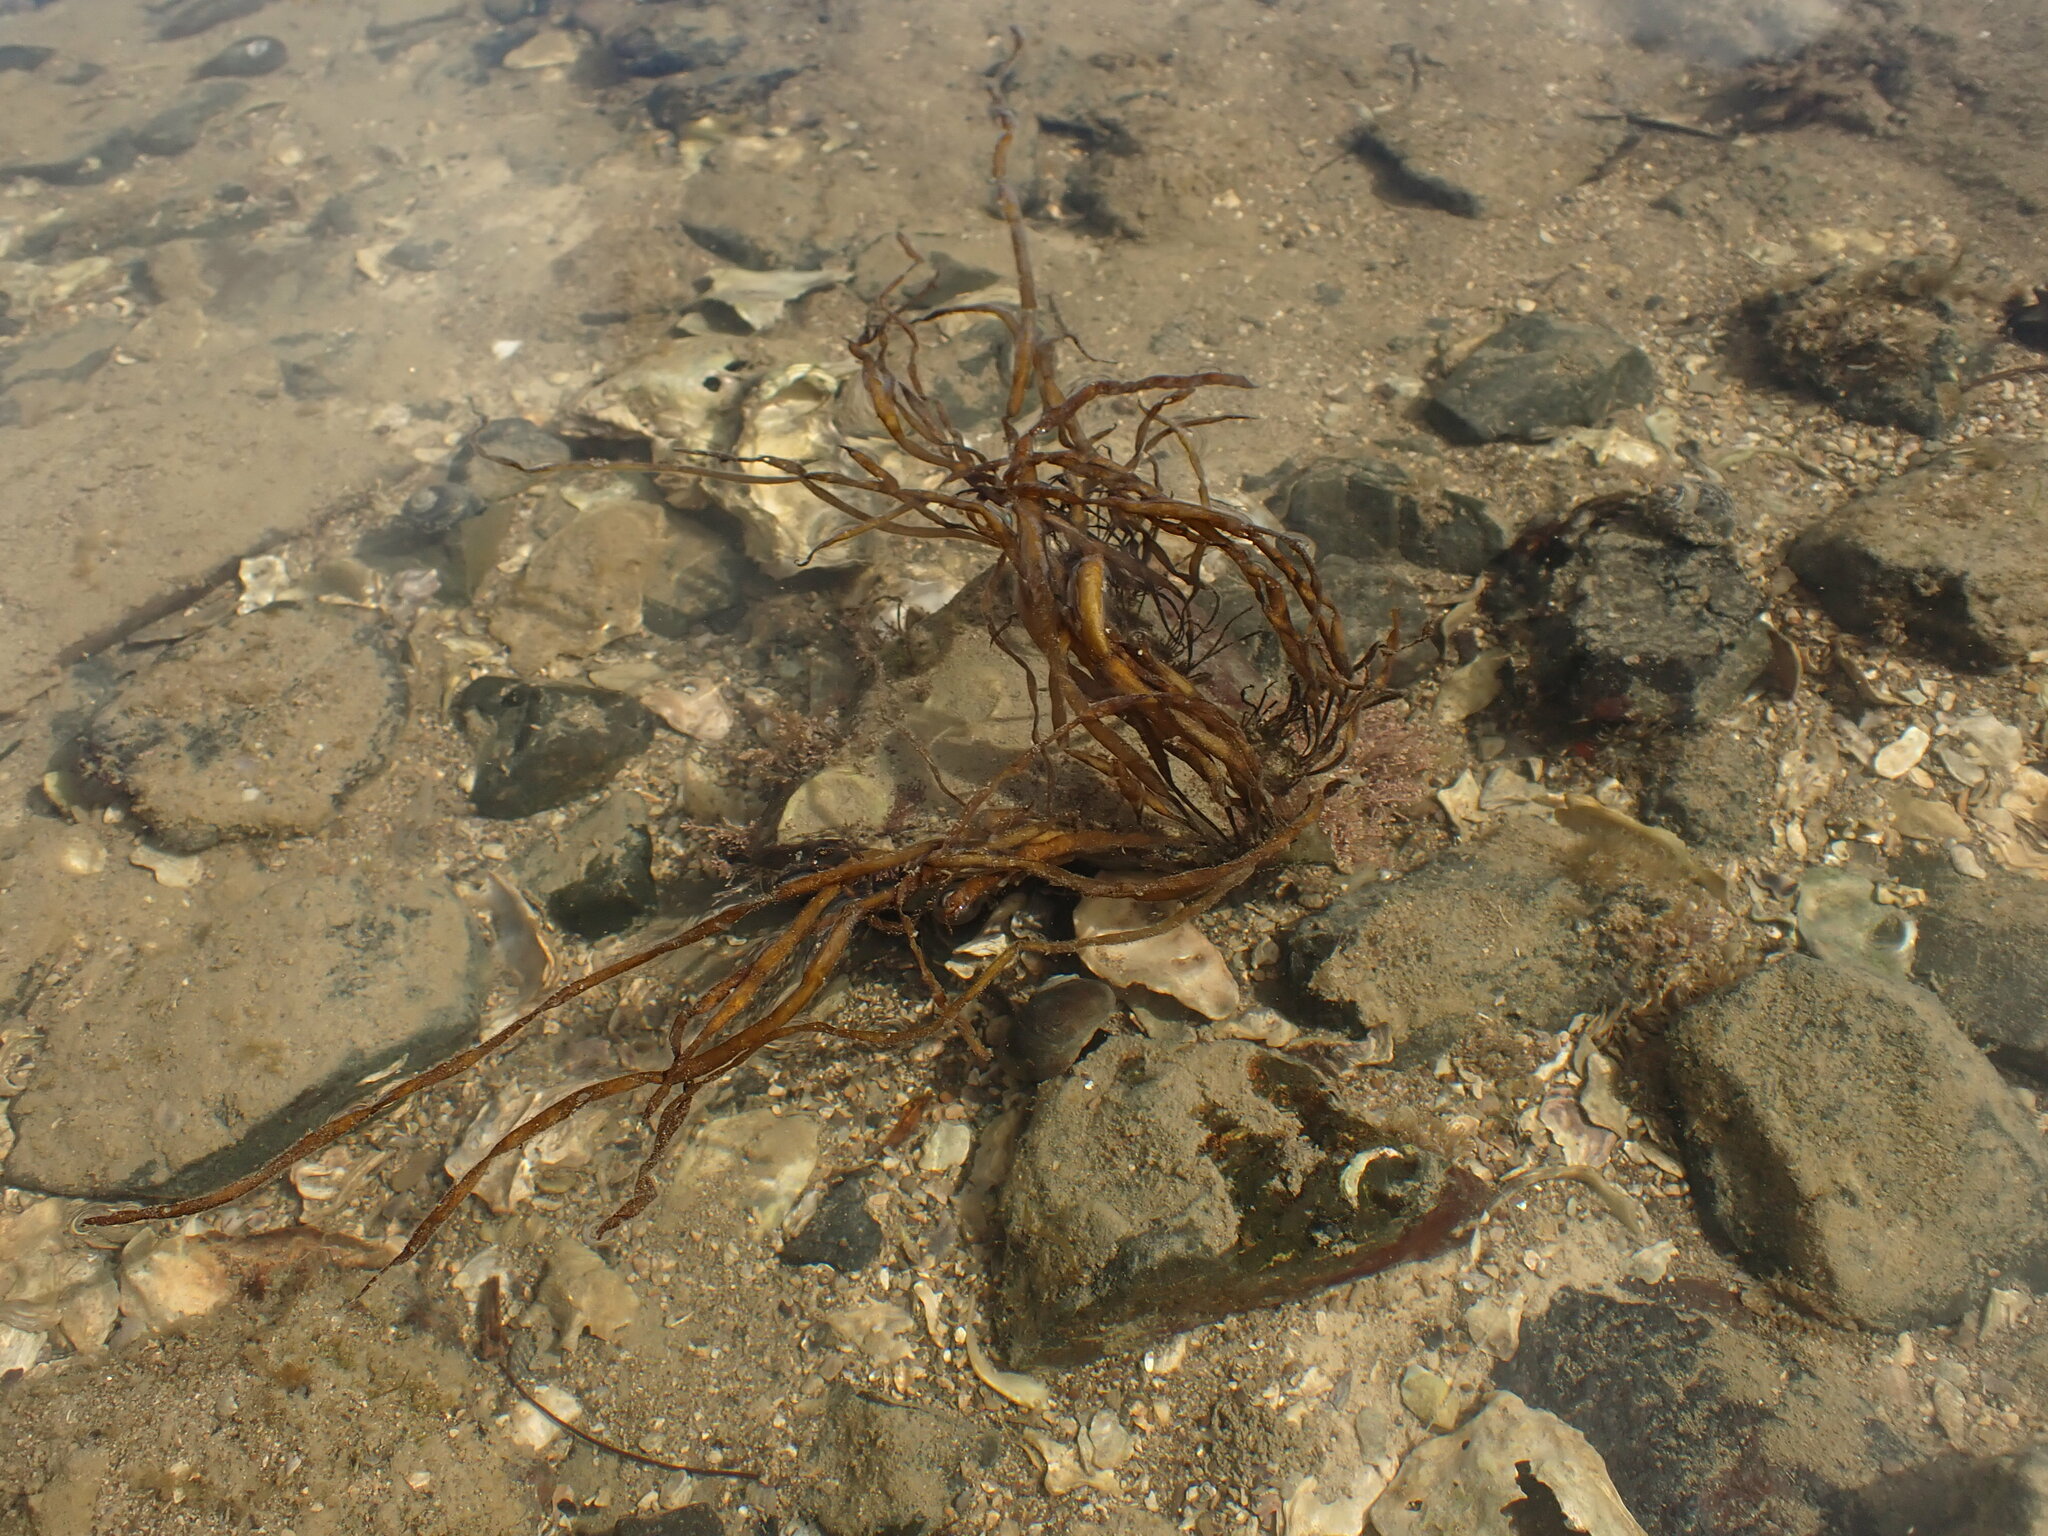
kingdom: Chromista
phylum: Ochrophyta
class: Phaeophyceae
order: Scytosiphonales
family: Scytosiphonaceae
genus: Scytosiphon
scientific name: Scytosiphon lomentaria
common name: Beanweed
